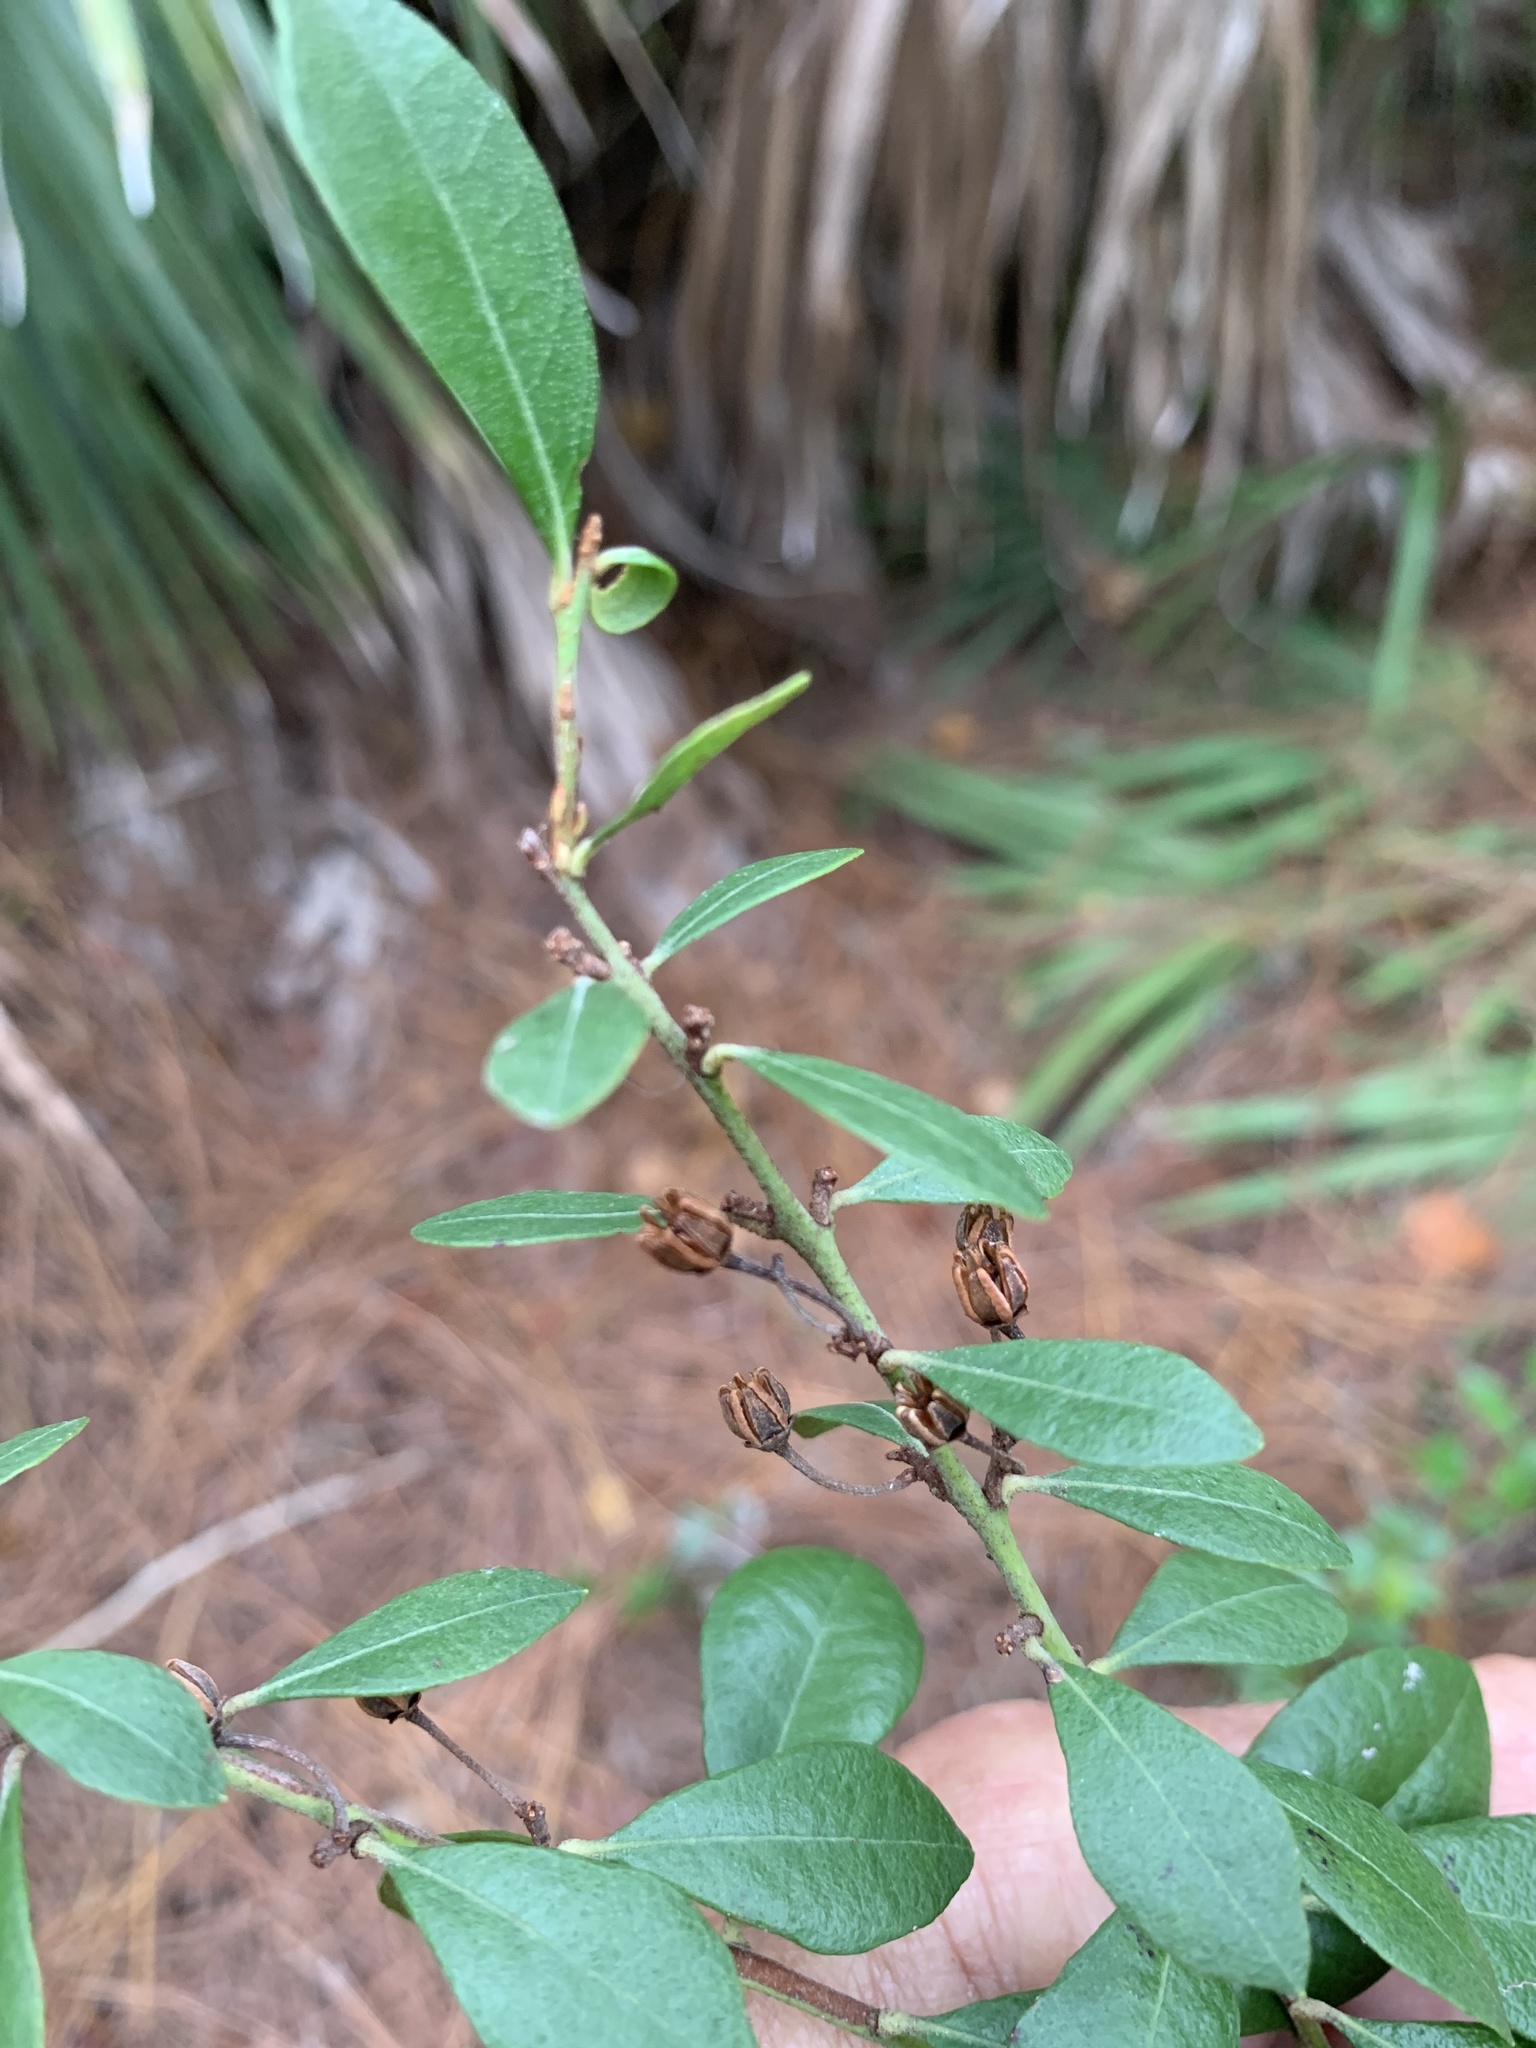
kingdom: Plantae
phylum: Tracheophyta
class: Magnoliopsida
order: Ericales
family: Ericaceae
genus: Lyonia
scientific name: Lyonia fruticosa
